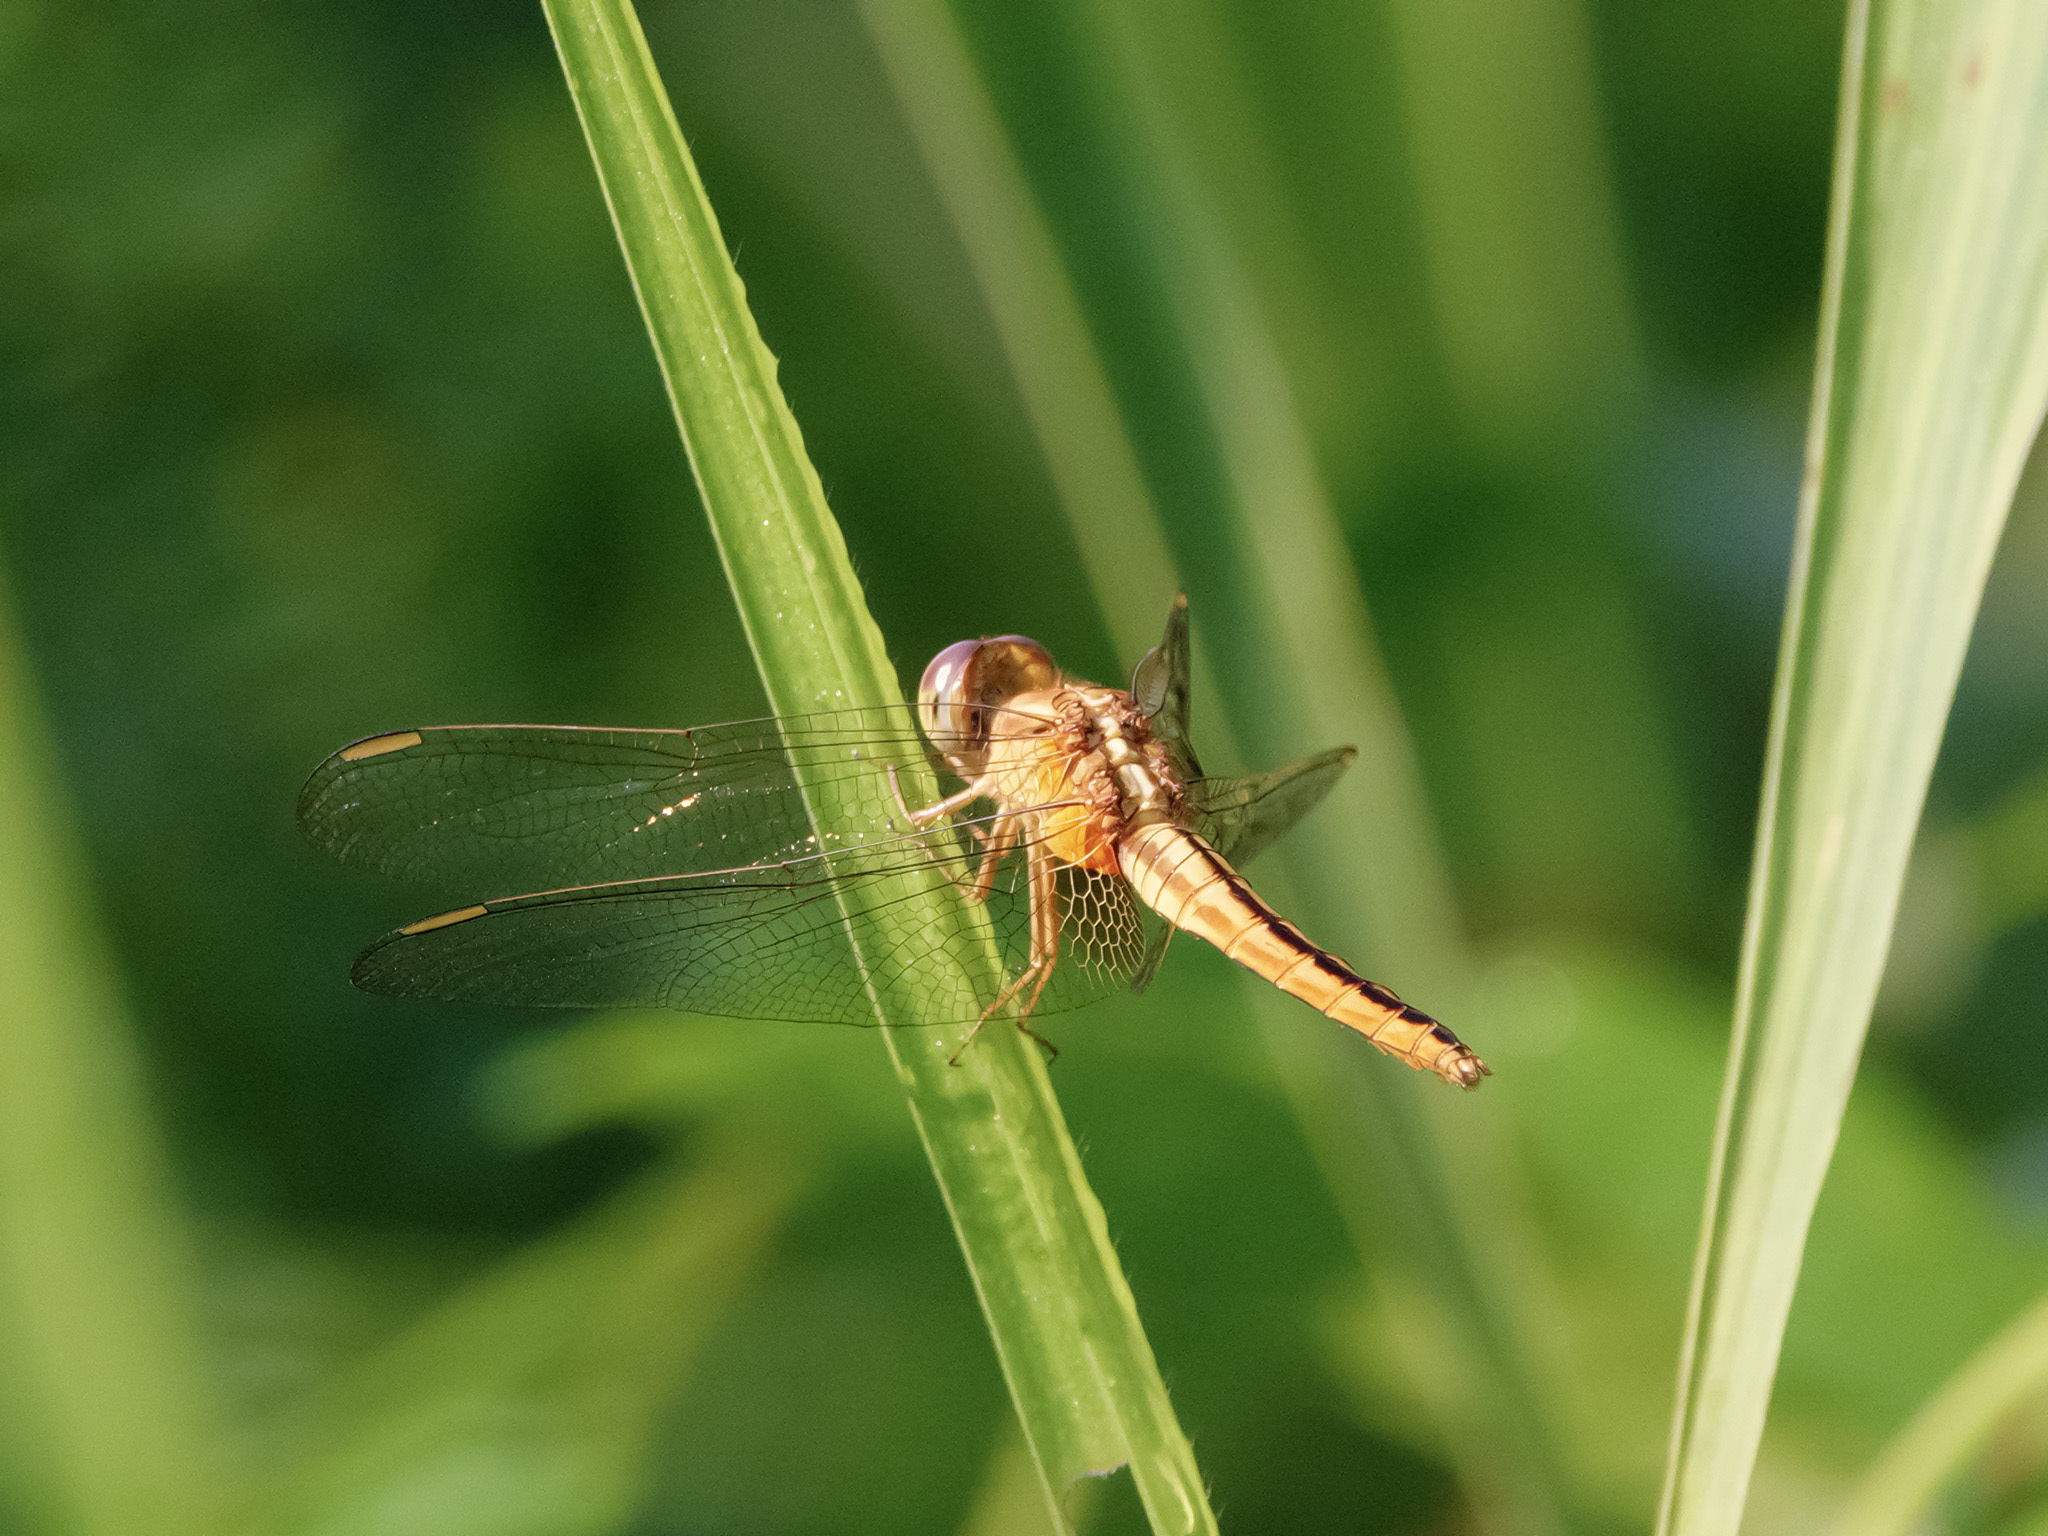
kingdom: Animalia
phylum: Arthropoda
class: Insecta
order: Odonata
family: Libellulidae
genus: Crocothemis
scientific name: Crocothemis servilia
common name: Scarlet skimmer
